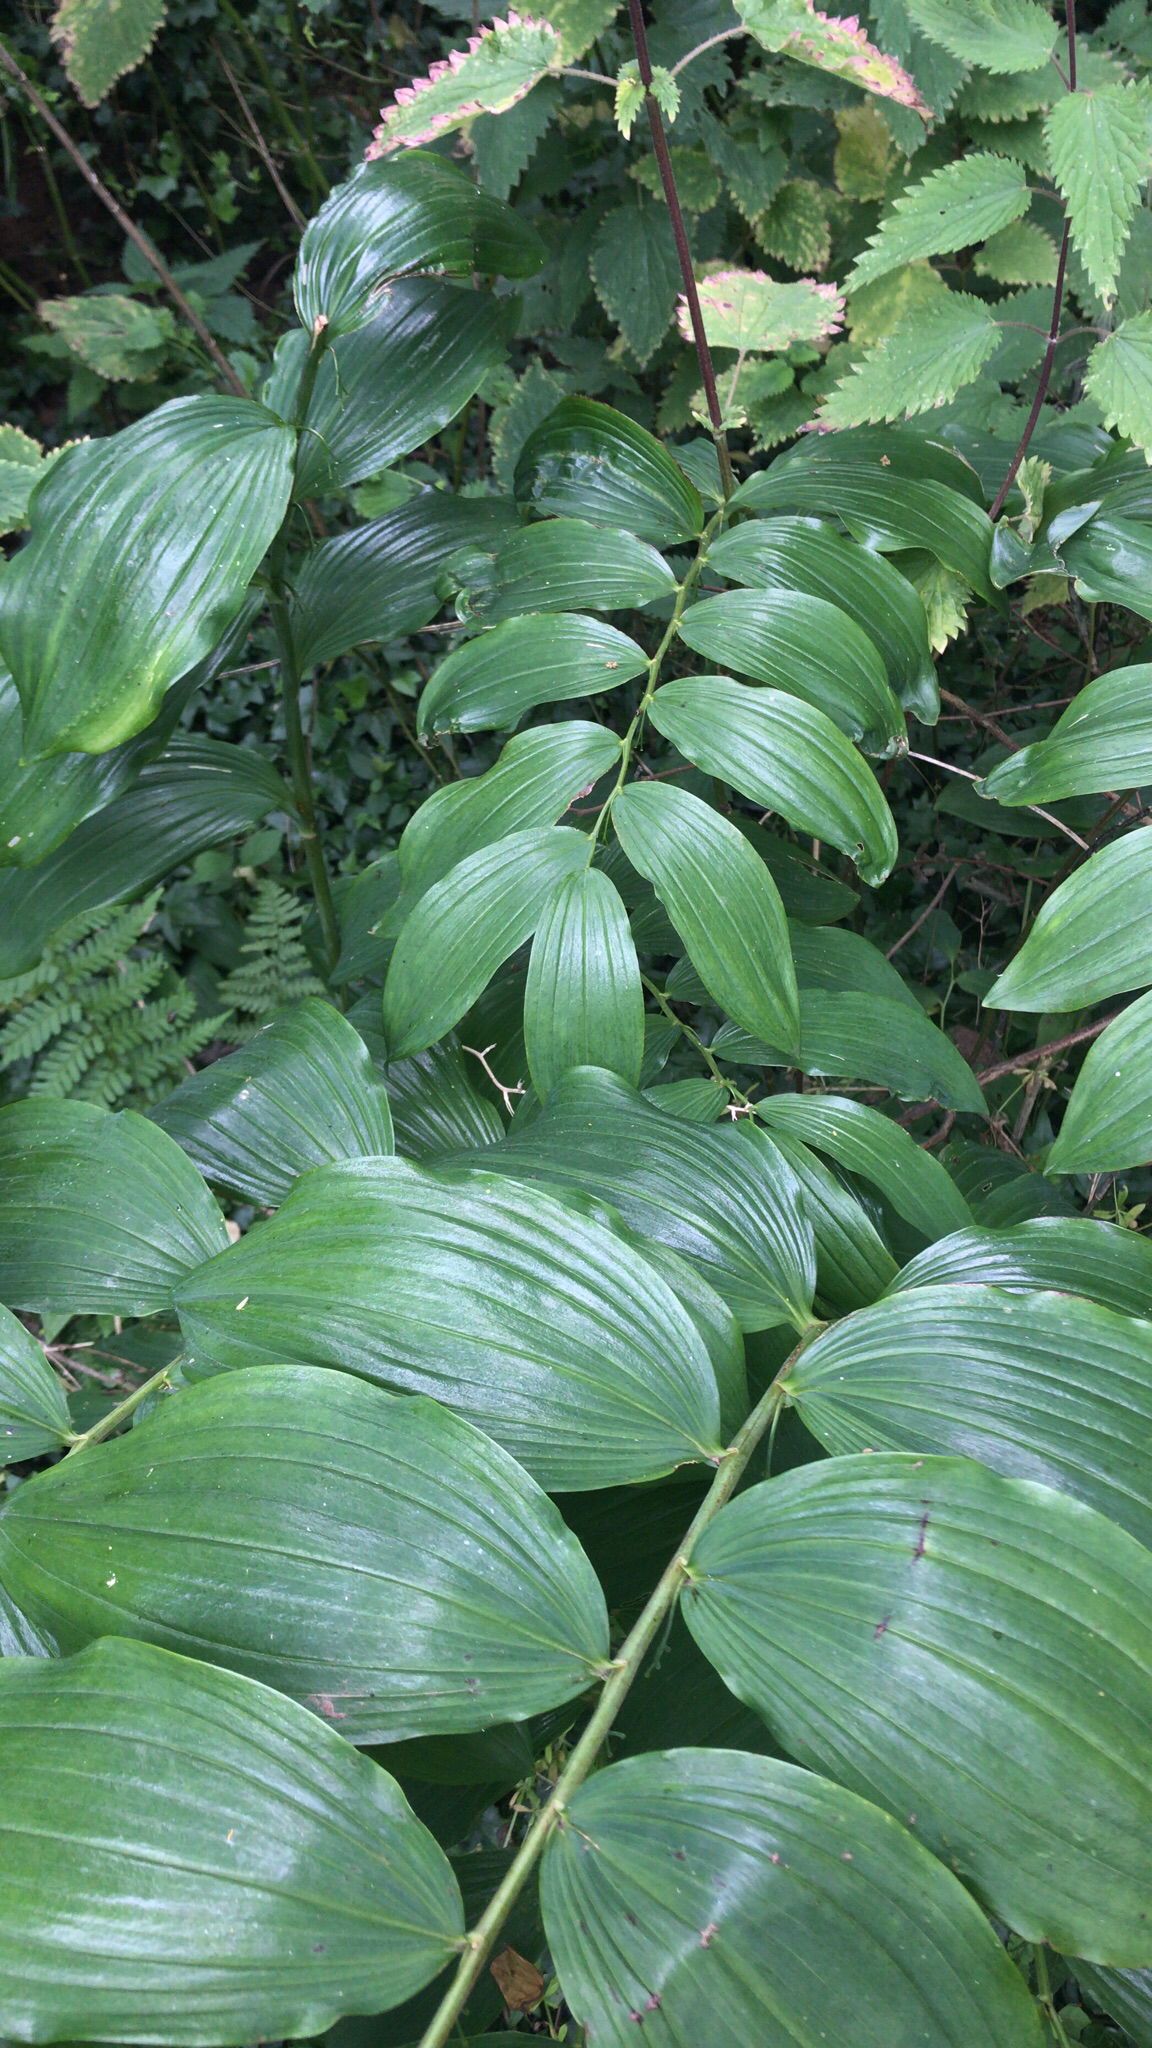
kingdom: Plantae
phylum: Tracheophyta
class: Liliopsida
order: Asparagales
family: Asparagaceae
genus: Polygonatum
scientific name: Polygonatum hybridum
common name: Garden solomon's-seal
